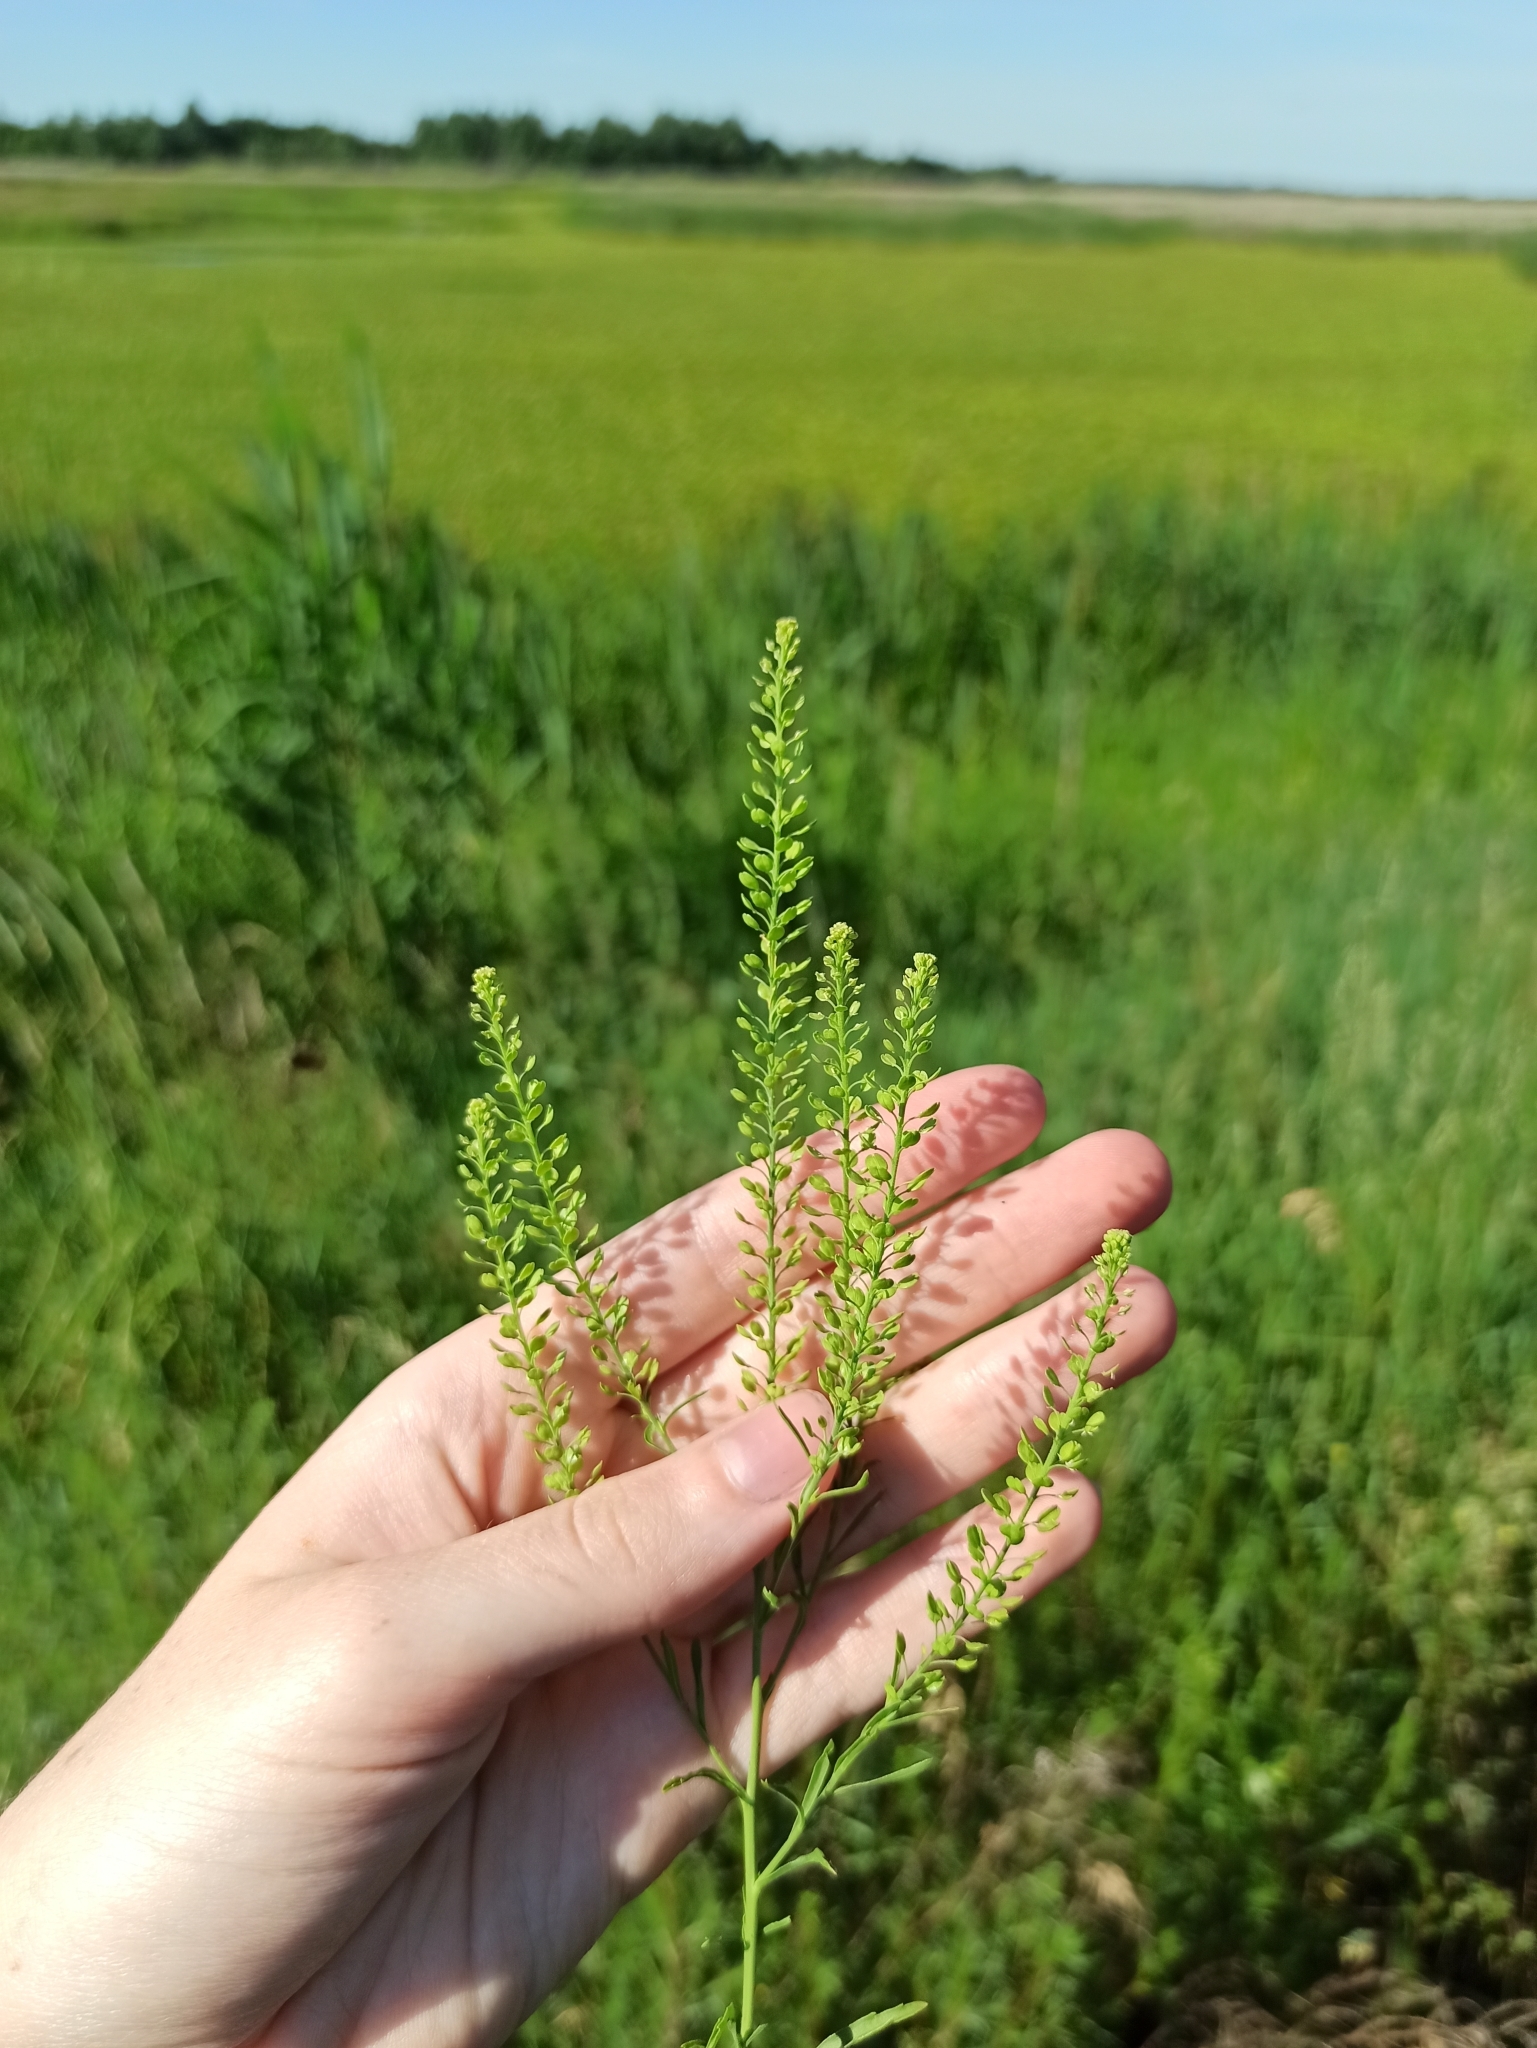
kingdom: Plantae
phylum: Tracheophyta
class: Magnoliopsida
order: Brassicales
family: Brassicaceae
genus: Lepidium
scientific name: Lepidium densiflorum
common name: Miner's pepperwort
